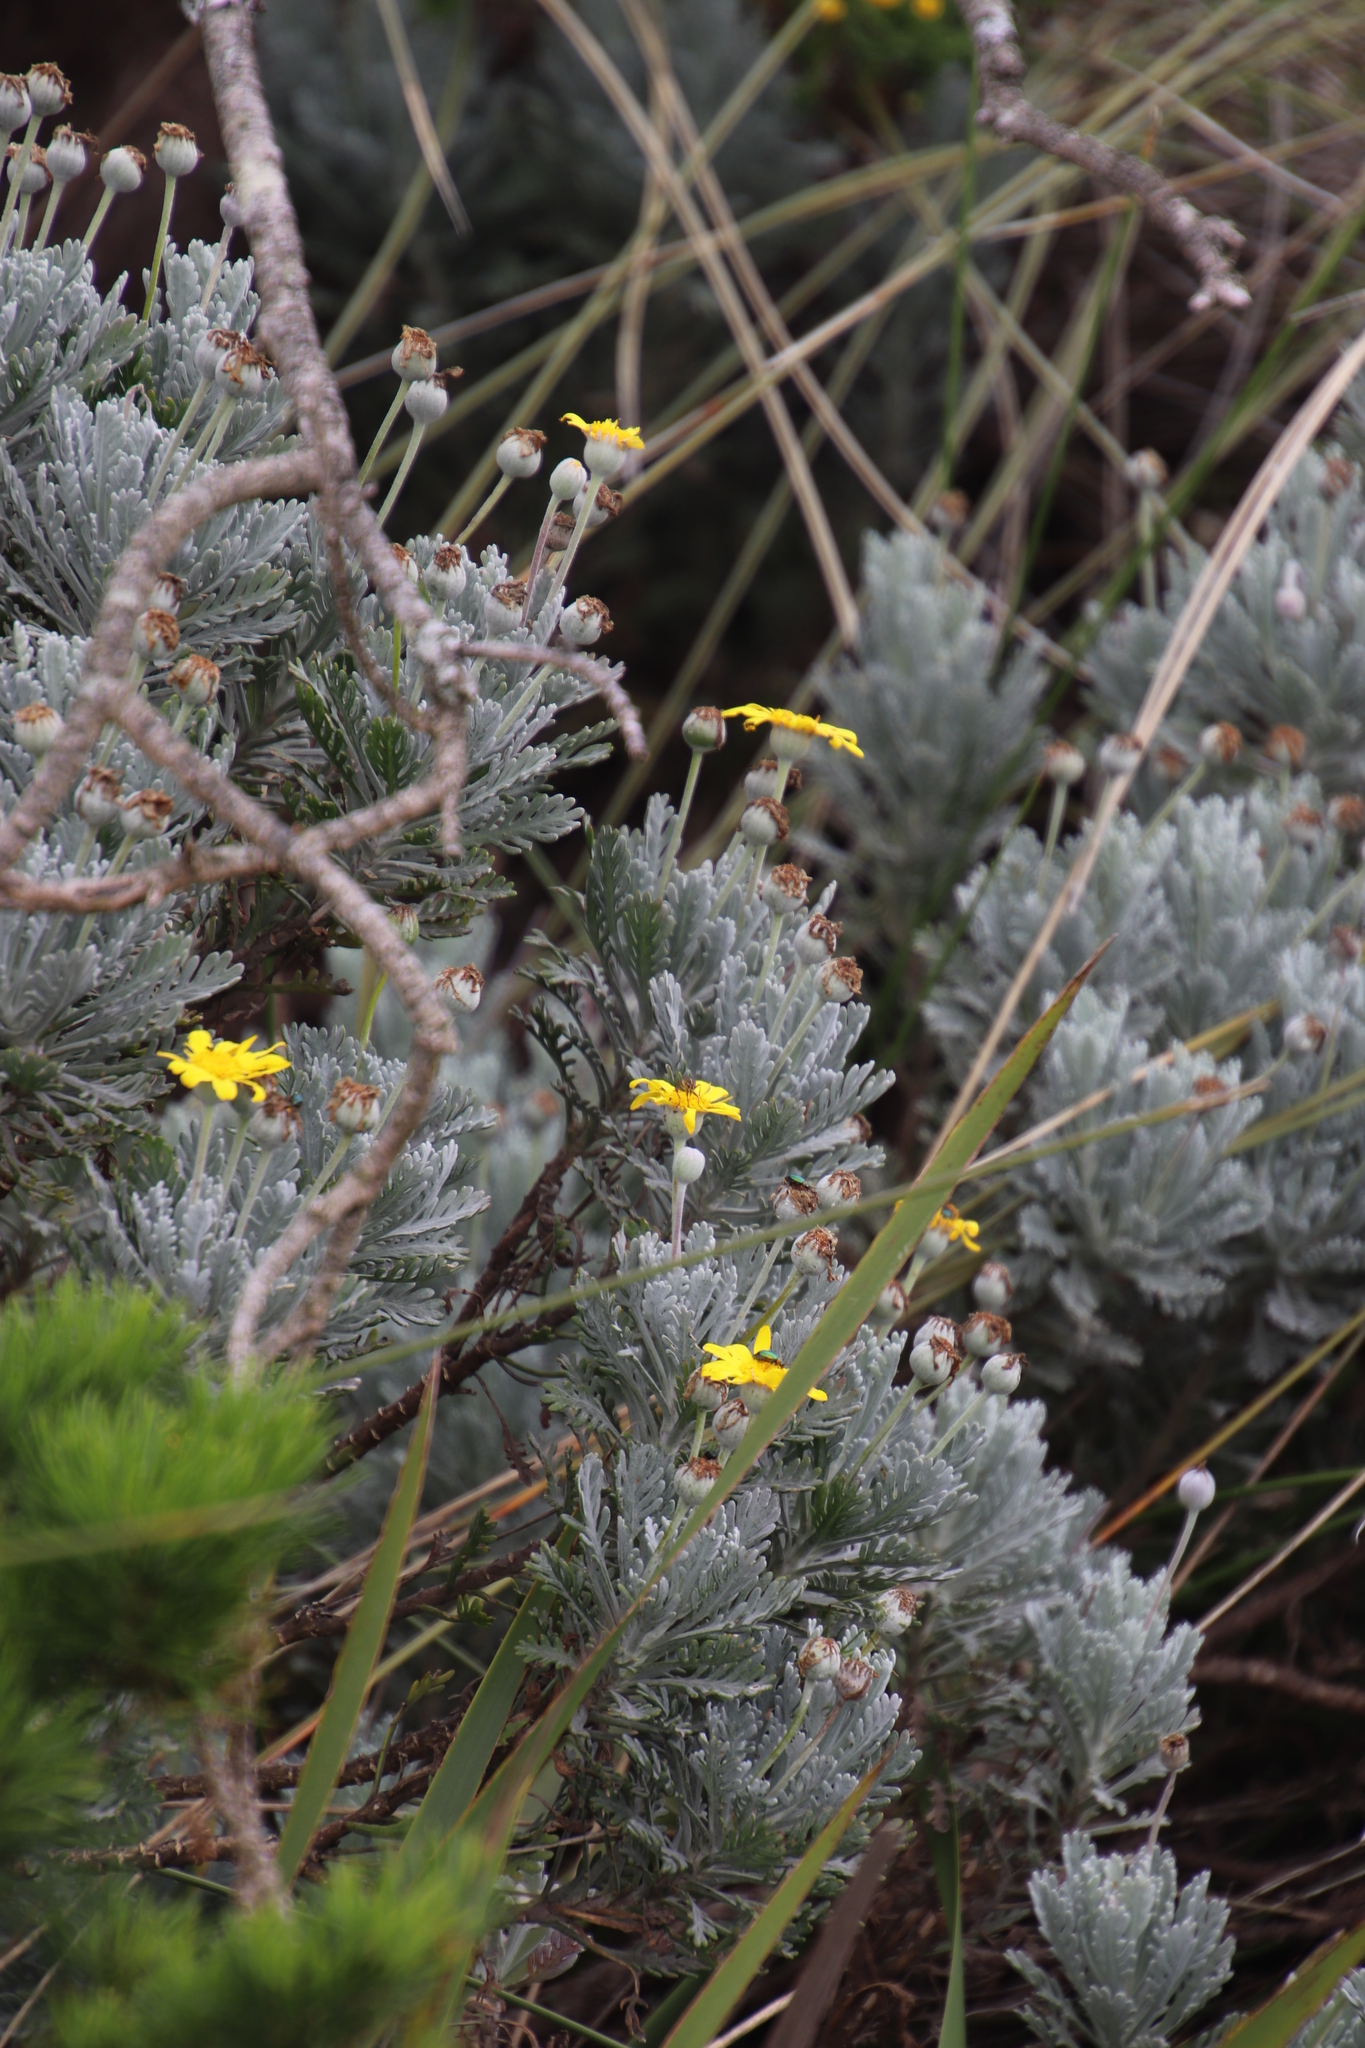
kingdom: Plantae
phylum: Tracheophyta
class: Magnoliopsida
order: Asterales
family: Asteraceae
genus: Euryops
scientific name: Euryops pectinatus
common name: Gray-leaf euryops
